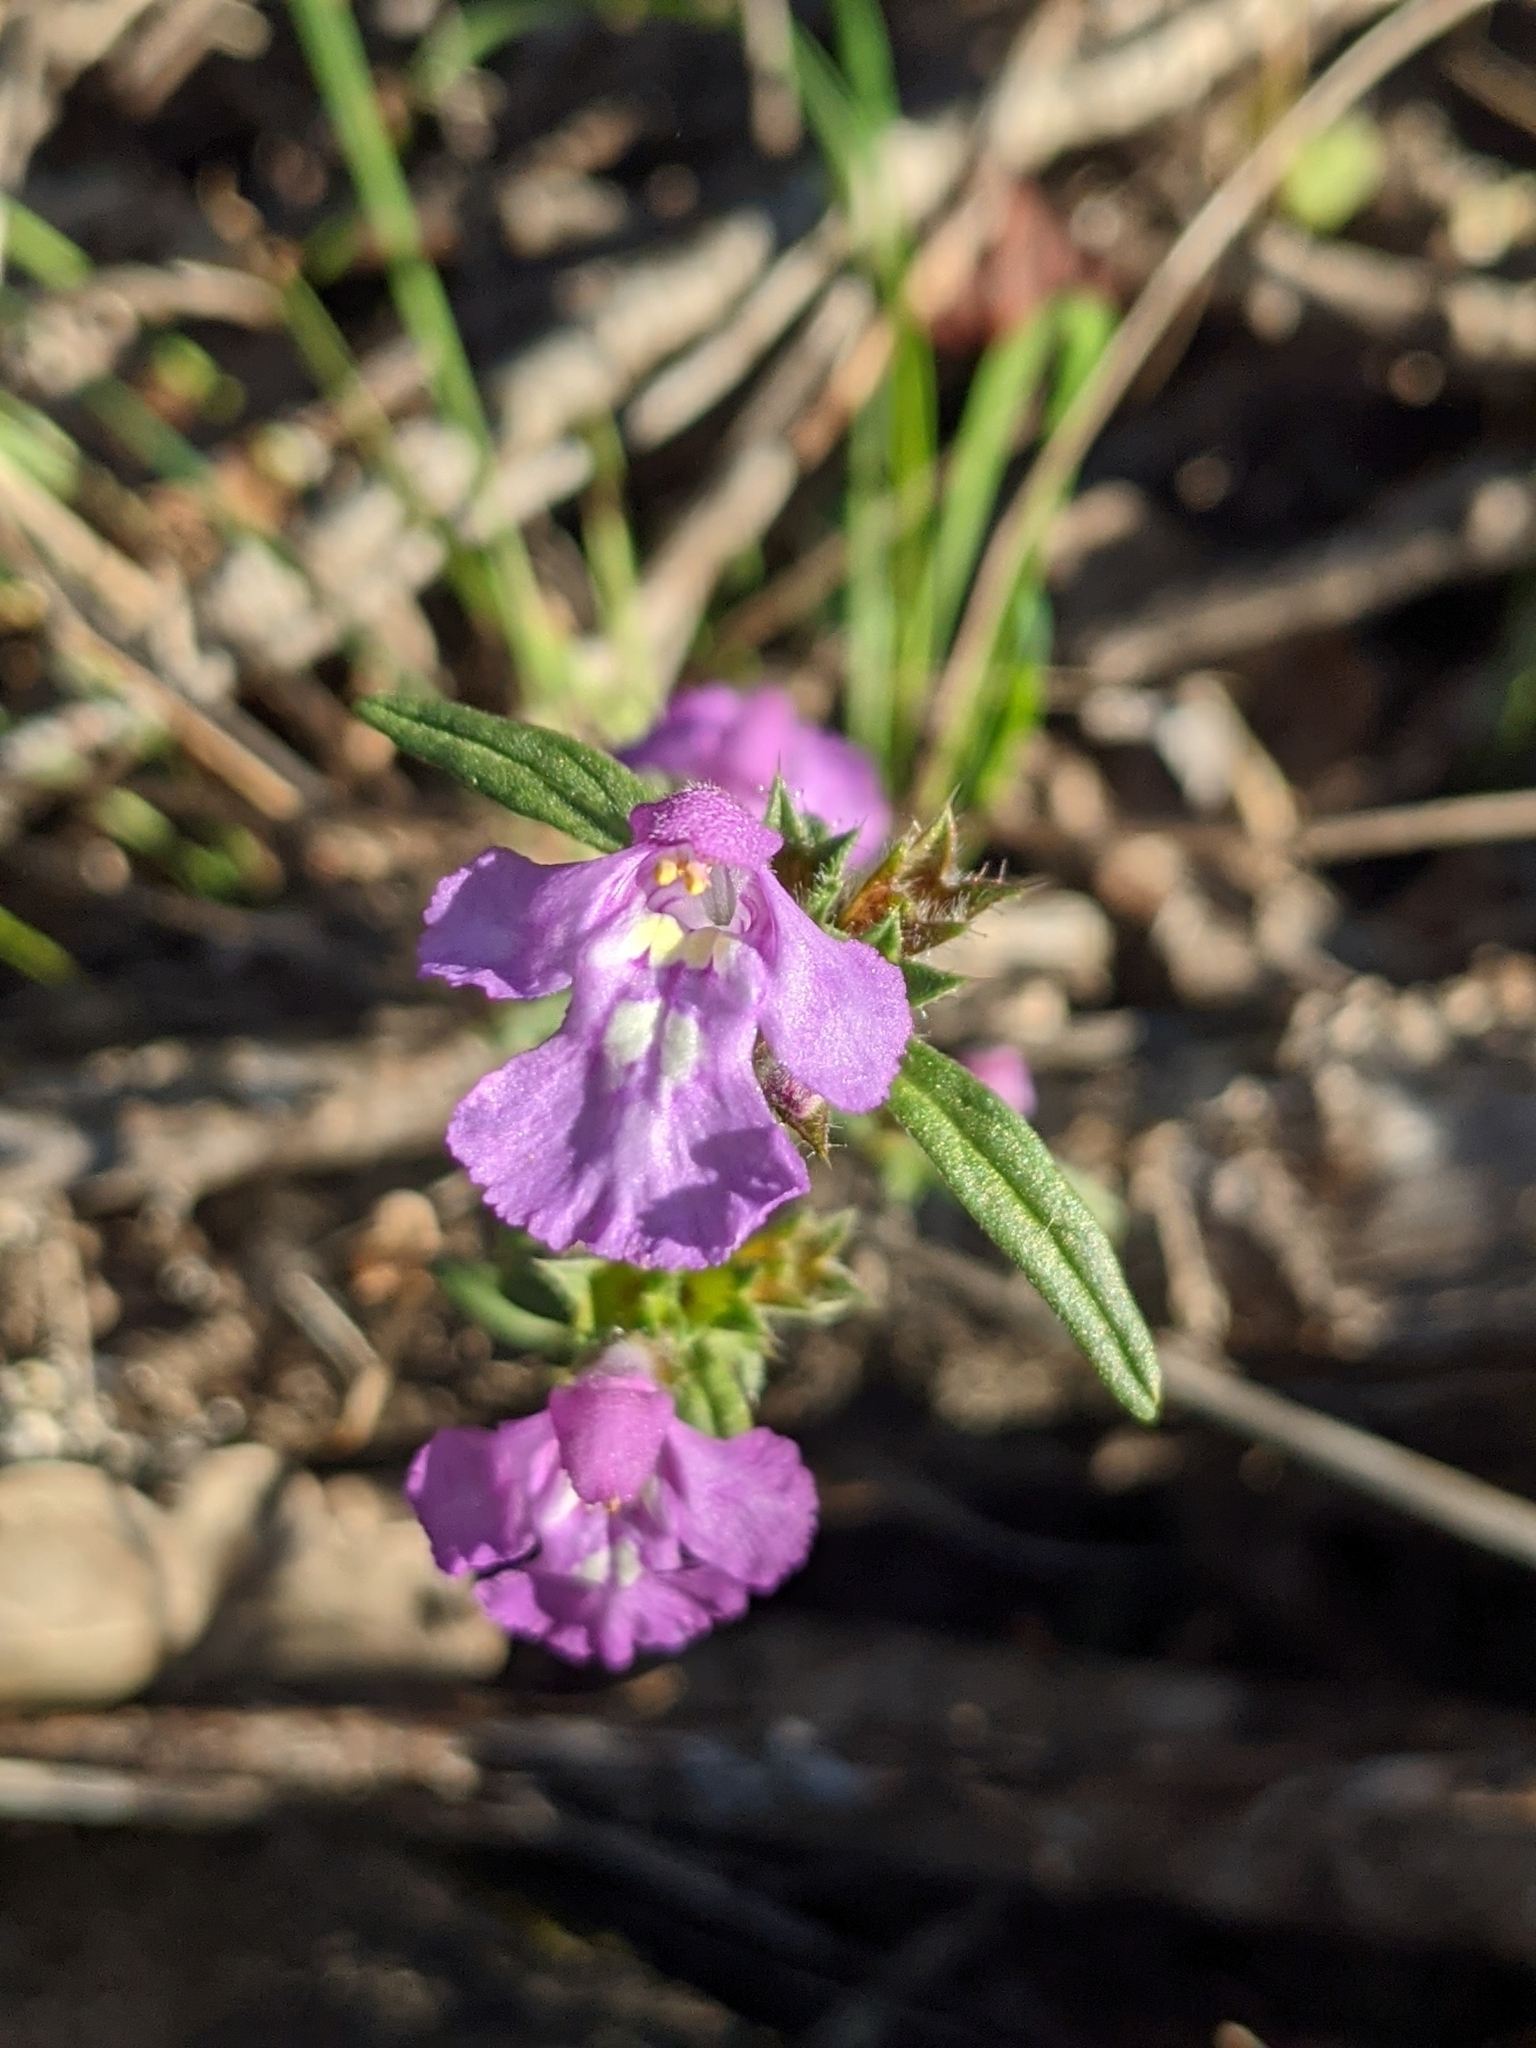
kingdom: Plantae
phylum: Tracheophyta
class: Magnoliopsida
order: Lamiales
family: Lamiaceae
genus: Galeopsis
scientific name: Galeopsis angustifolia
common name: Red hemp-nettle
